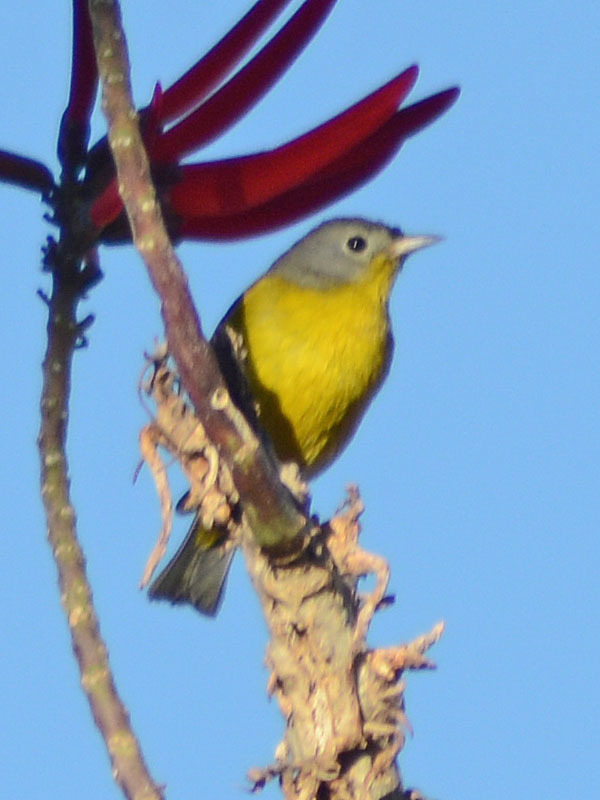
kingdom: Animalia
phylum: Chordata
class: Aves
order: Passeriformes
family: Parulidae
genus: Leiothlypis
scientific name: Leiothlypis ruficapilla
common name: Nashville warbler
